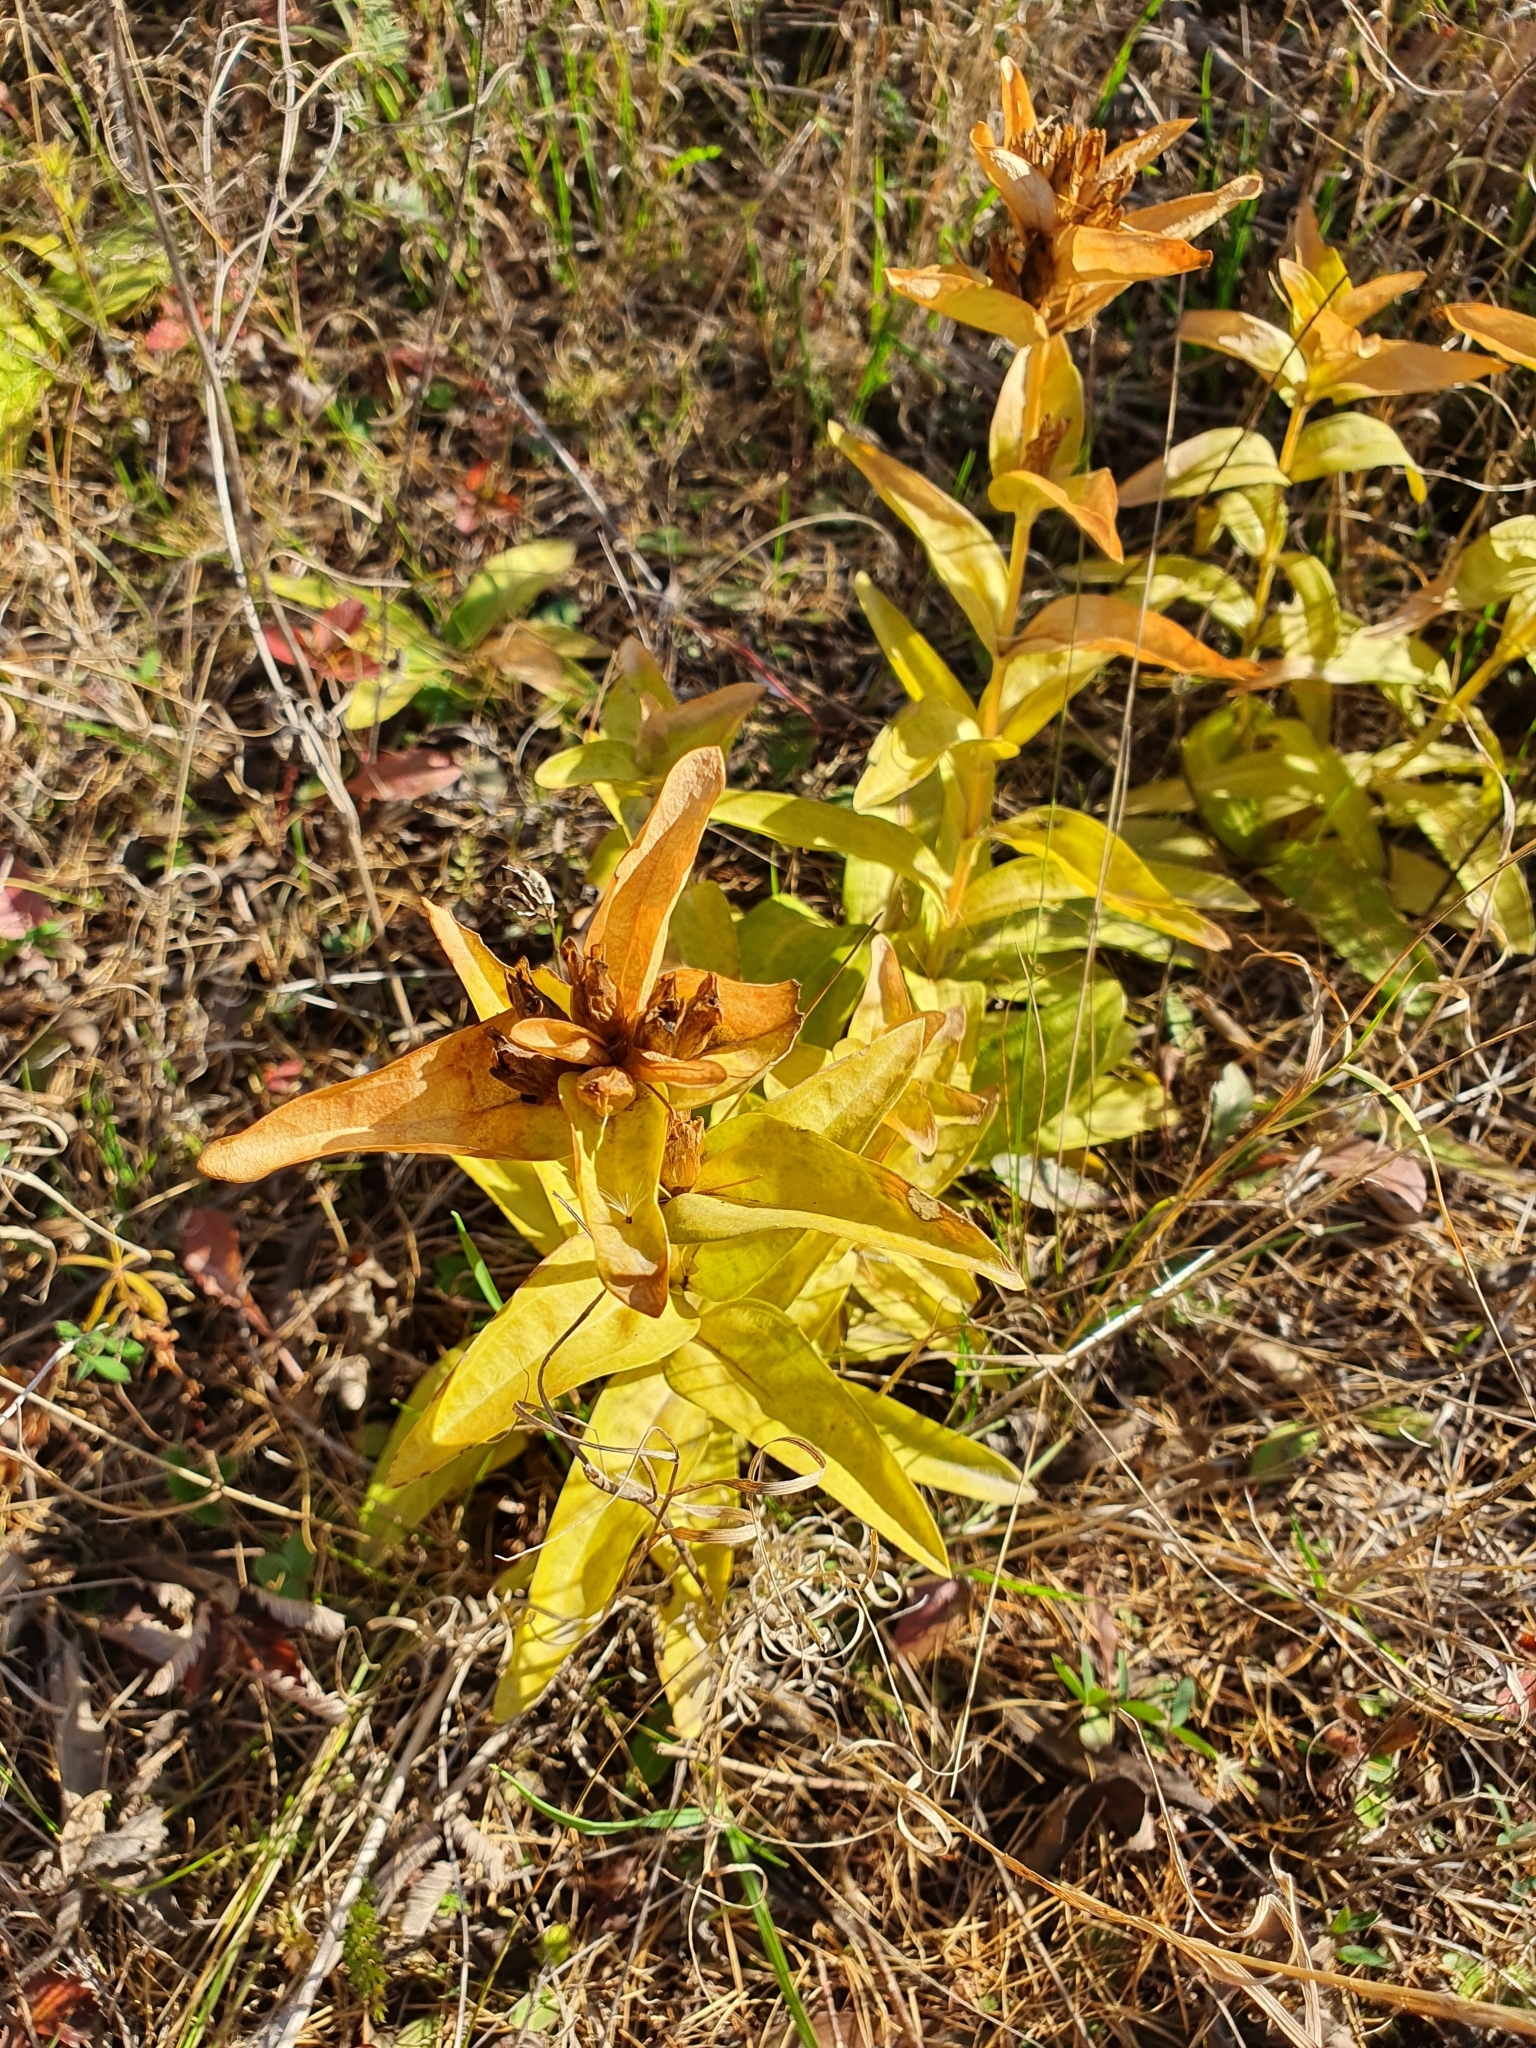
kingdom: Plantae
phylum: Tracheophyta
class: Magnoliopsida
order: Gentianales
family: Gentianaceae
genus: Gentiana
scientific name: Gentiana cruciata
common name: Cross gentian
